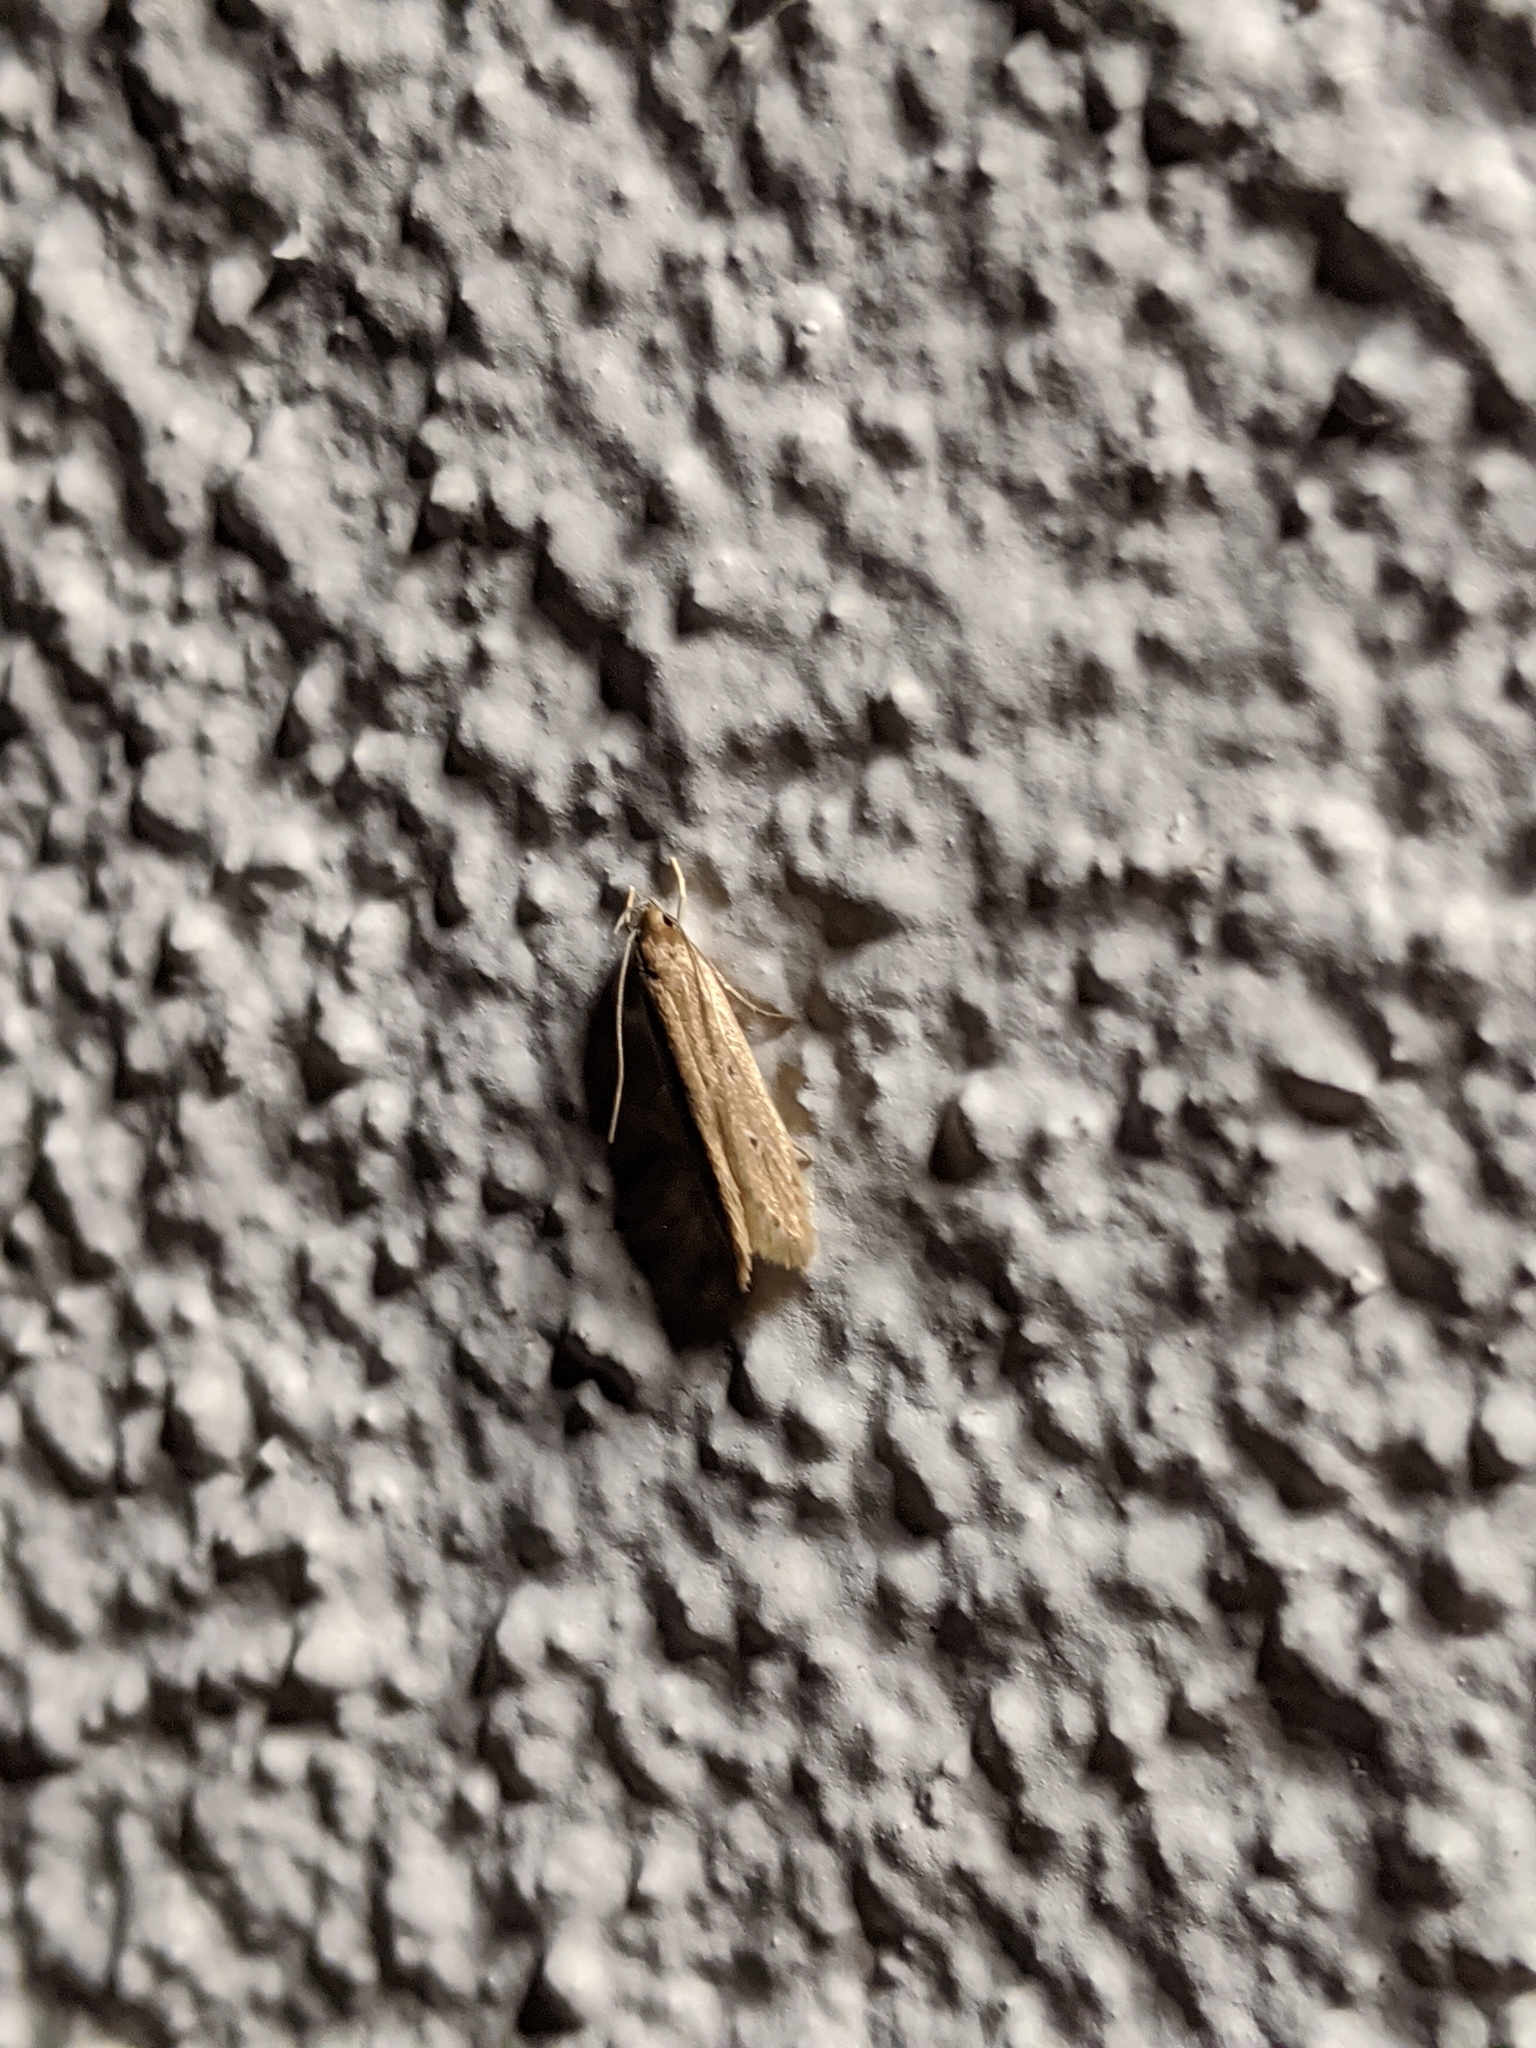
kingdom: Animalia
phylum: Arthropoda
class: Insecta
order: Lepidoptera
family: Cosmopterigidae
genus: Limnaecia
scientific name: Limnaecia phragmitella
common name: Bulrush cosmet
